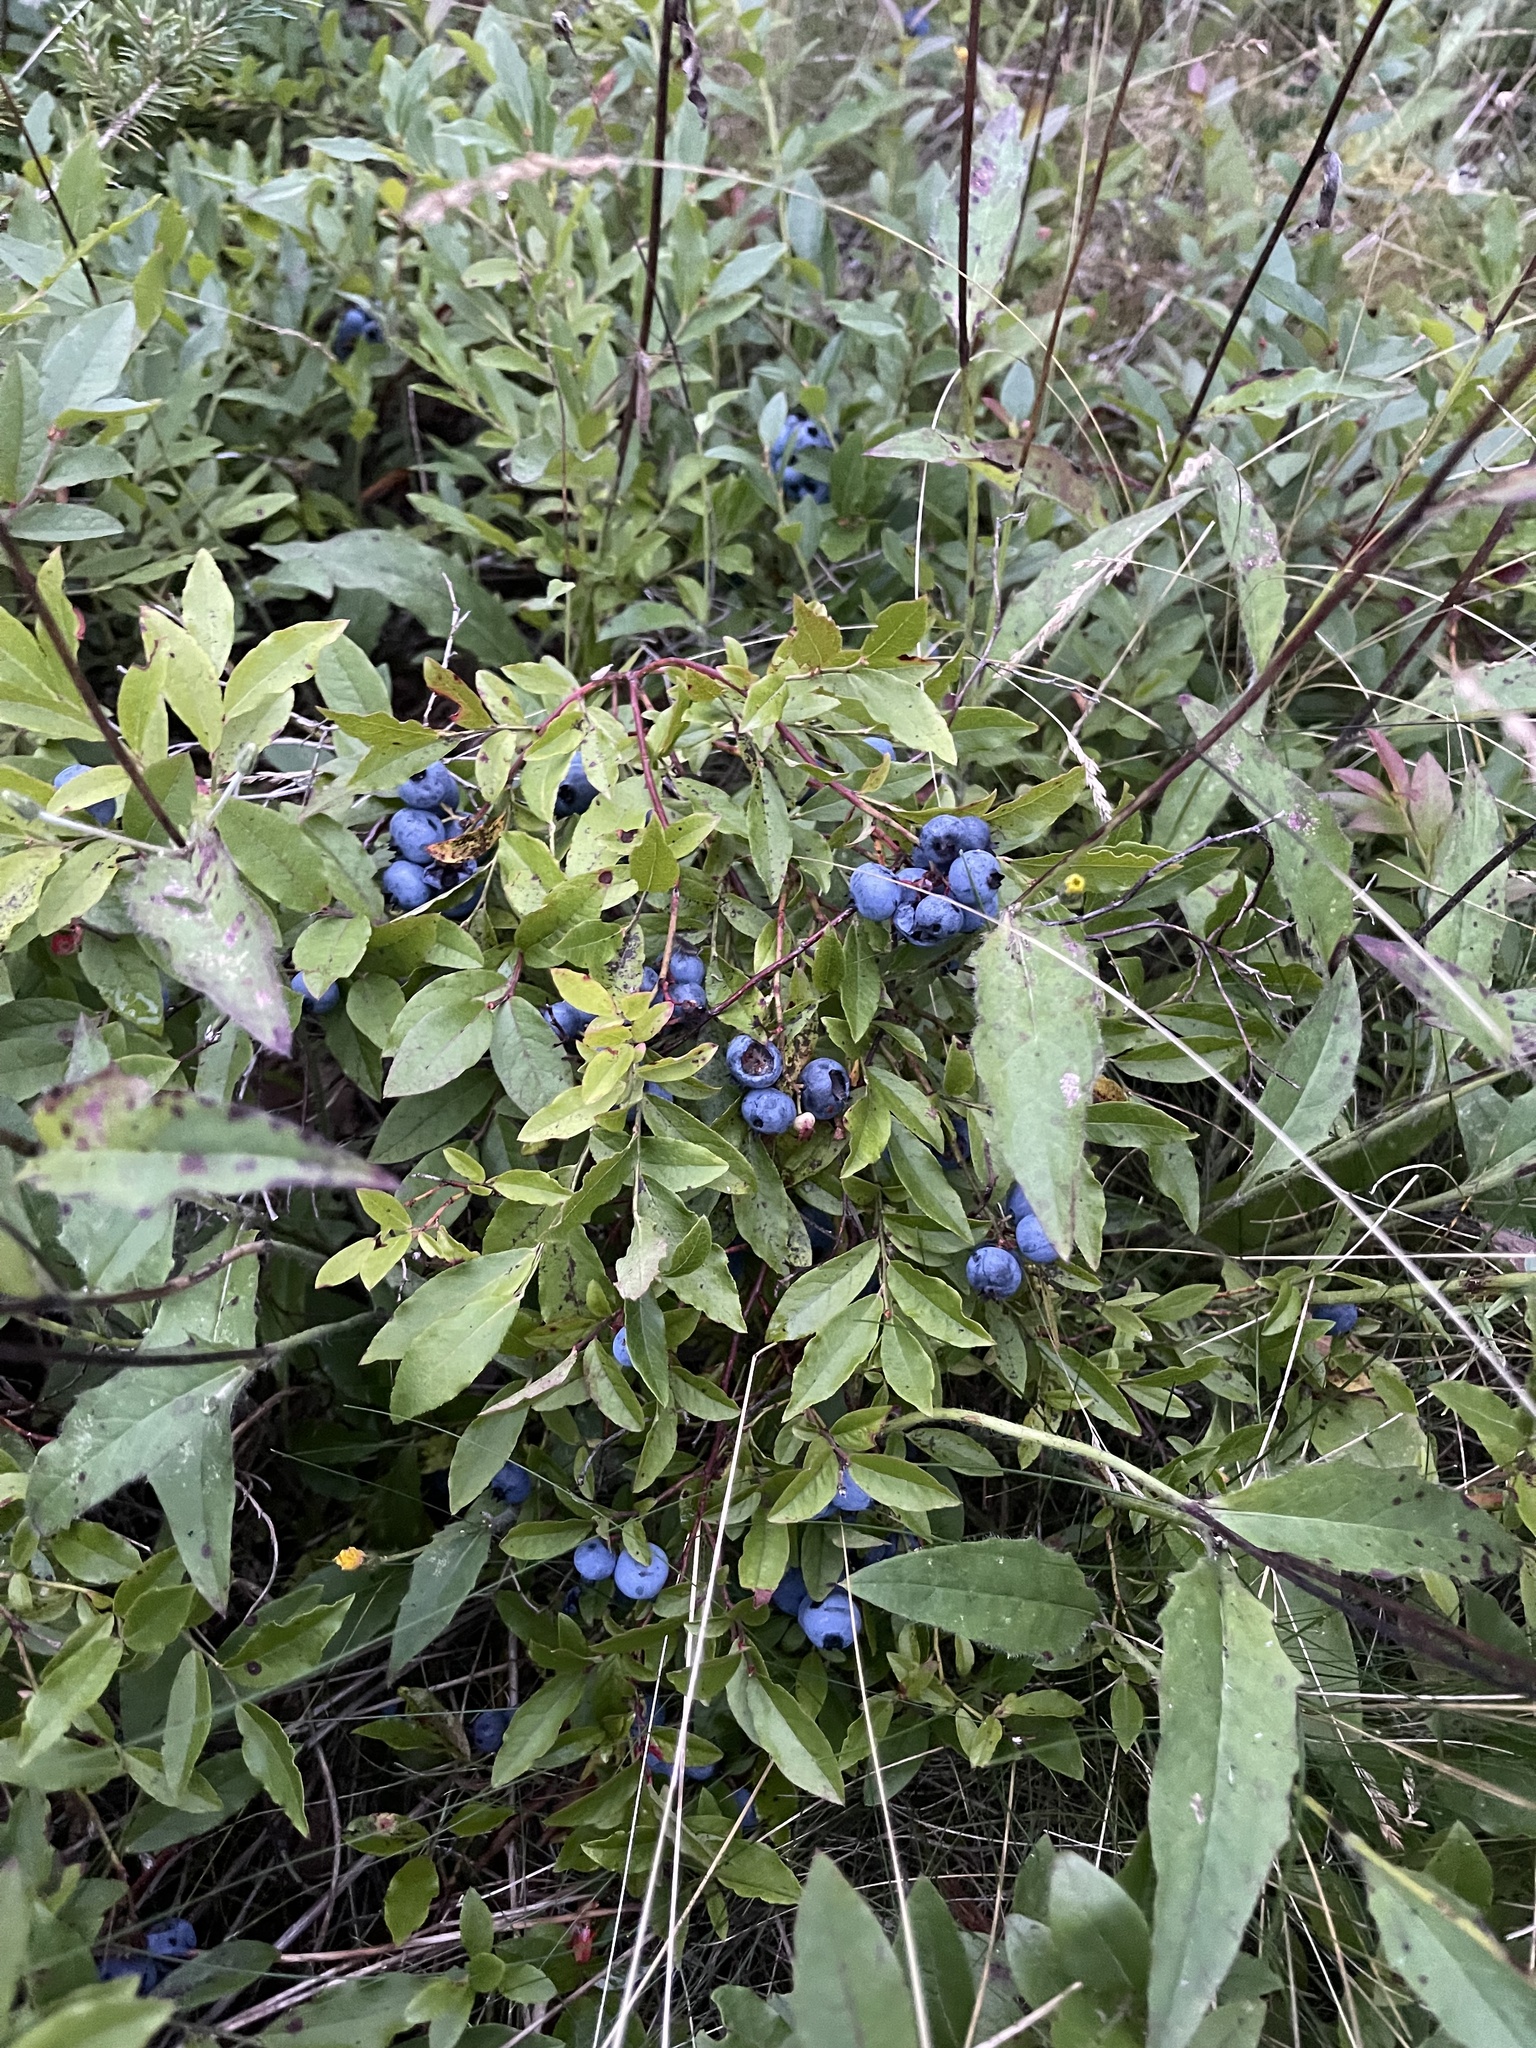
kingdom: Plantae
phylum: Tracheophyta
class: Magnoliopsida
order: Ericales
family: Ericaceae
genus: Vaccinium
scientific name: Vaccinium angustifolium
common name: Early lowbush blueberry
